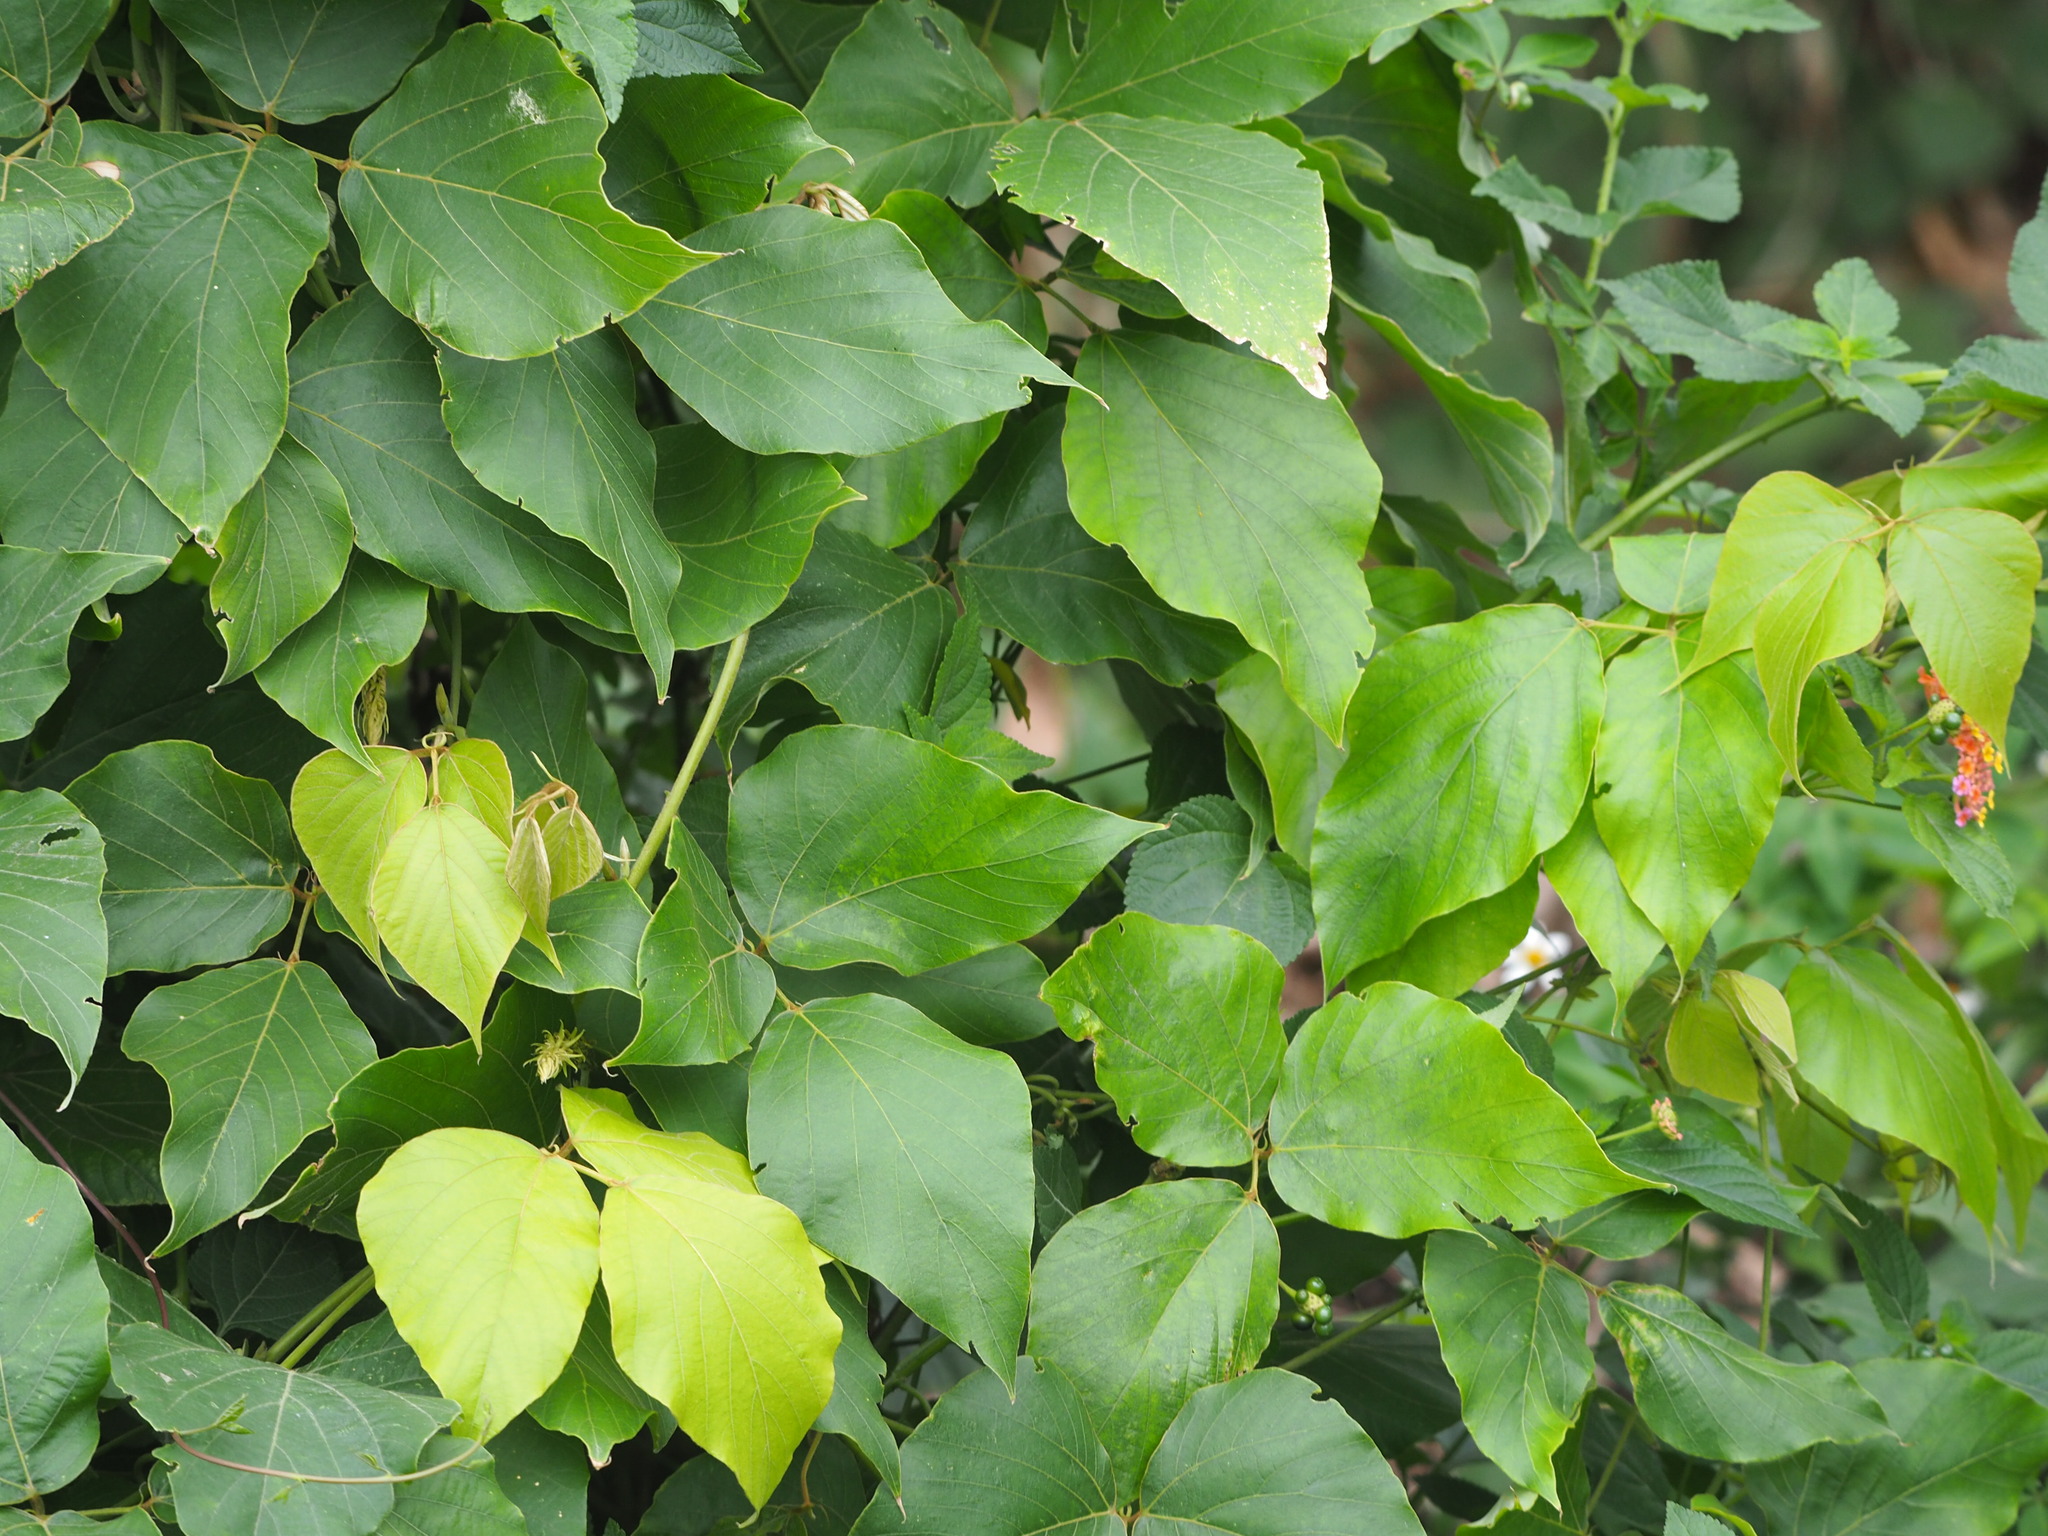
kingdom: Plantae
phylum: Tracheophyta
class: Magnoliopsida
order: Fabales
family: Fabaceae
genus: Pueraria
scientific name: Pueraria montana
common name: Kudzu
